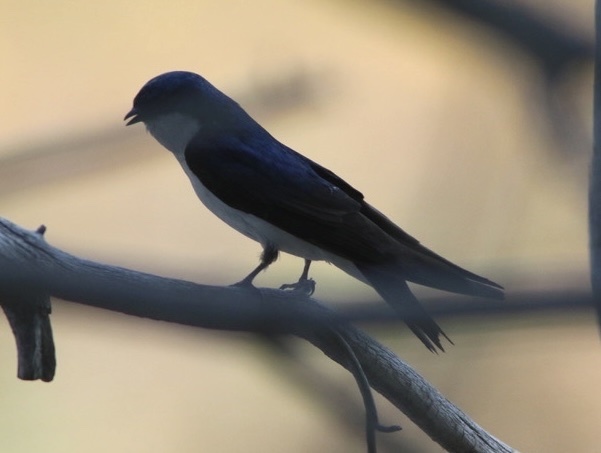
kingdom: Animalia
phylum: Chordata
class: Aves
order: Passeriformes
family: Hirundinidae
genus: Tachycineta
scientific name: Tachycineta bicolor
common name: Tree swallow
